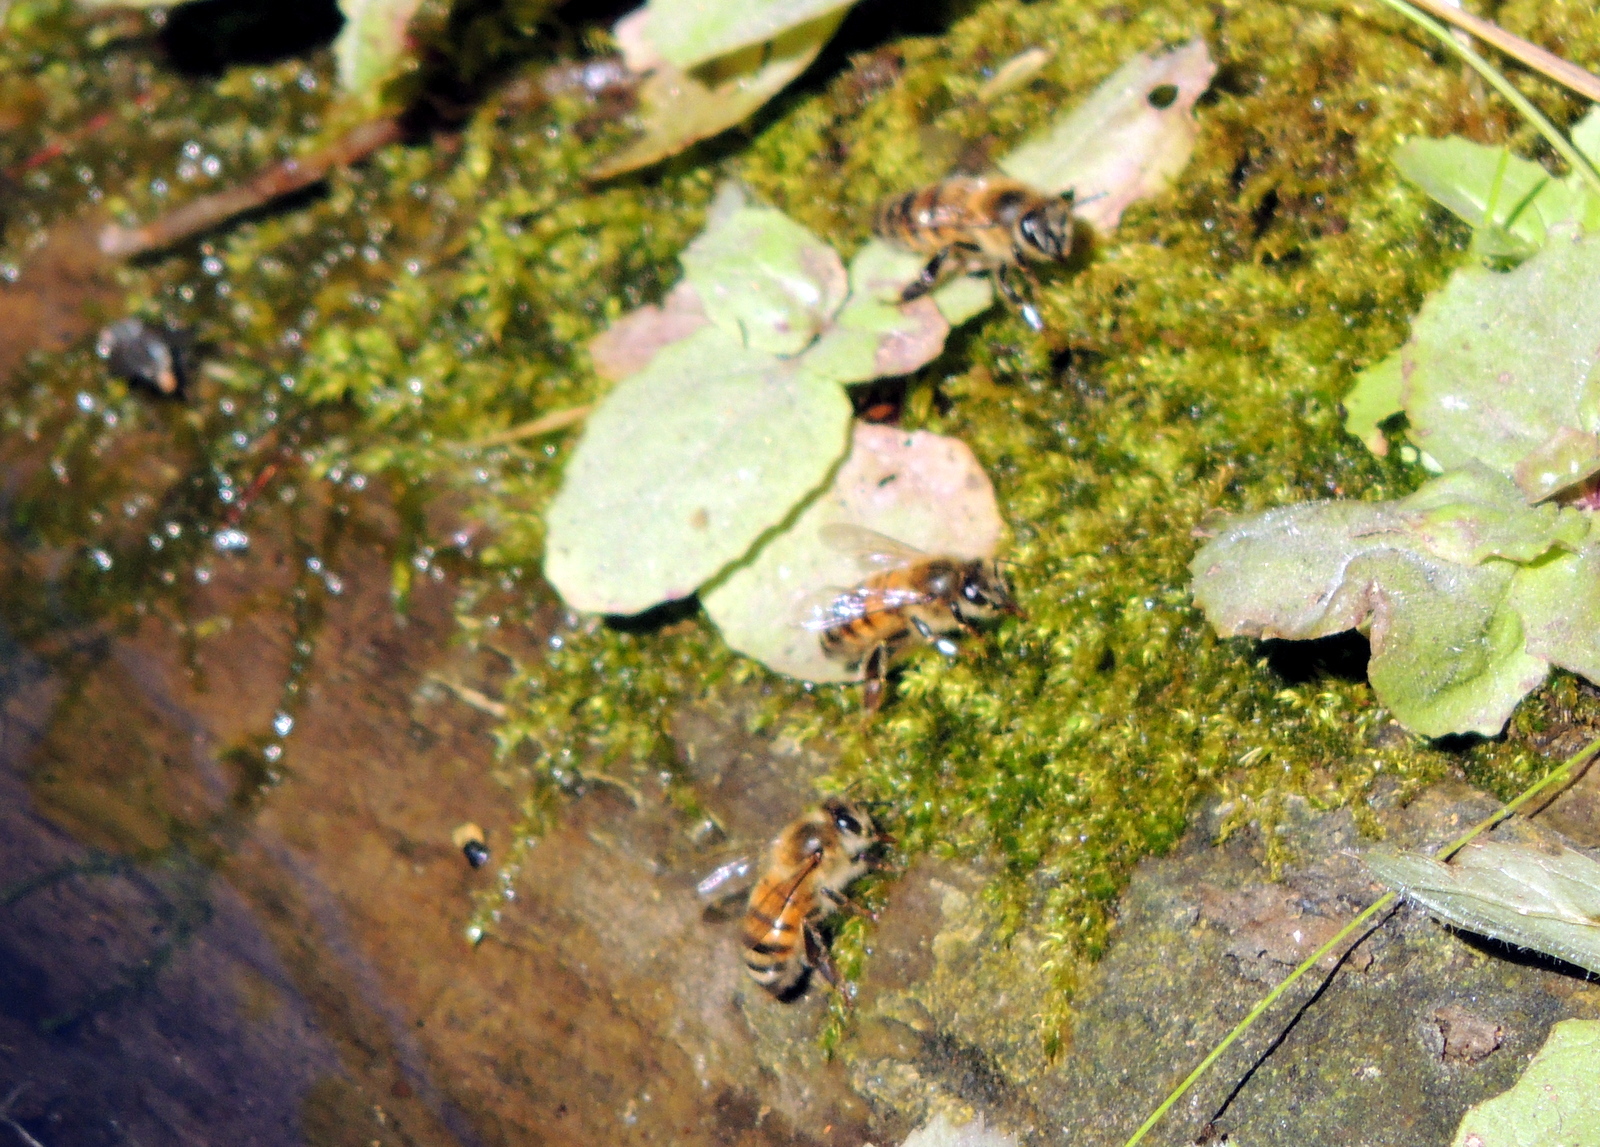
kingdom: Animalia
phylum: Arthropoda
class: Insecta
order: Hymenoptera
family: Apidae
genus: Apis
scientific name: Apis mellifera
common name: Honey bee
